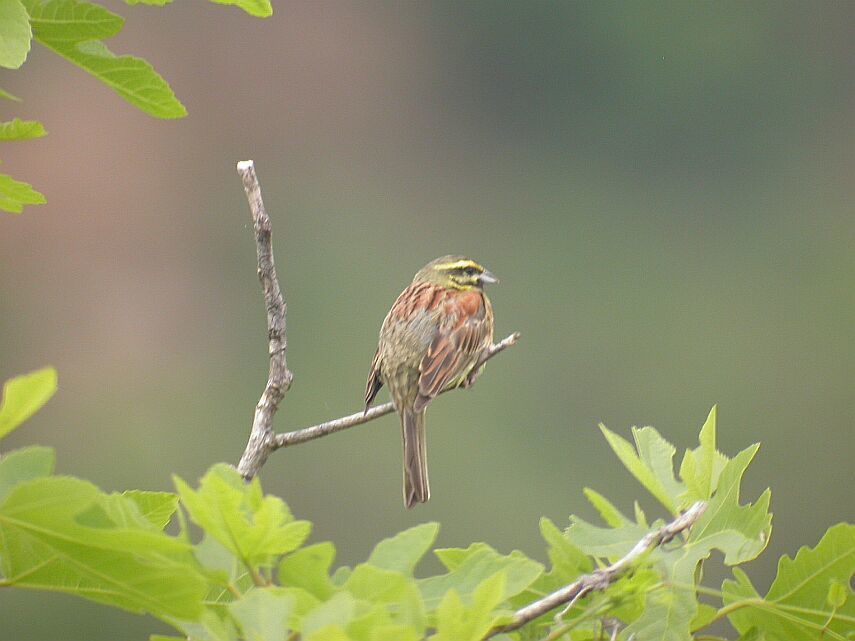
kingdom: Animalia
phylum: Chordata
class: Aves
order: Passeriformes
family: Emberizidae
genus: Emberiza
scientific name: Emberiza cirlus
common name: Cirl bunting
